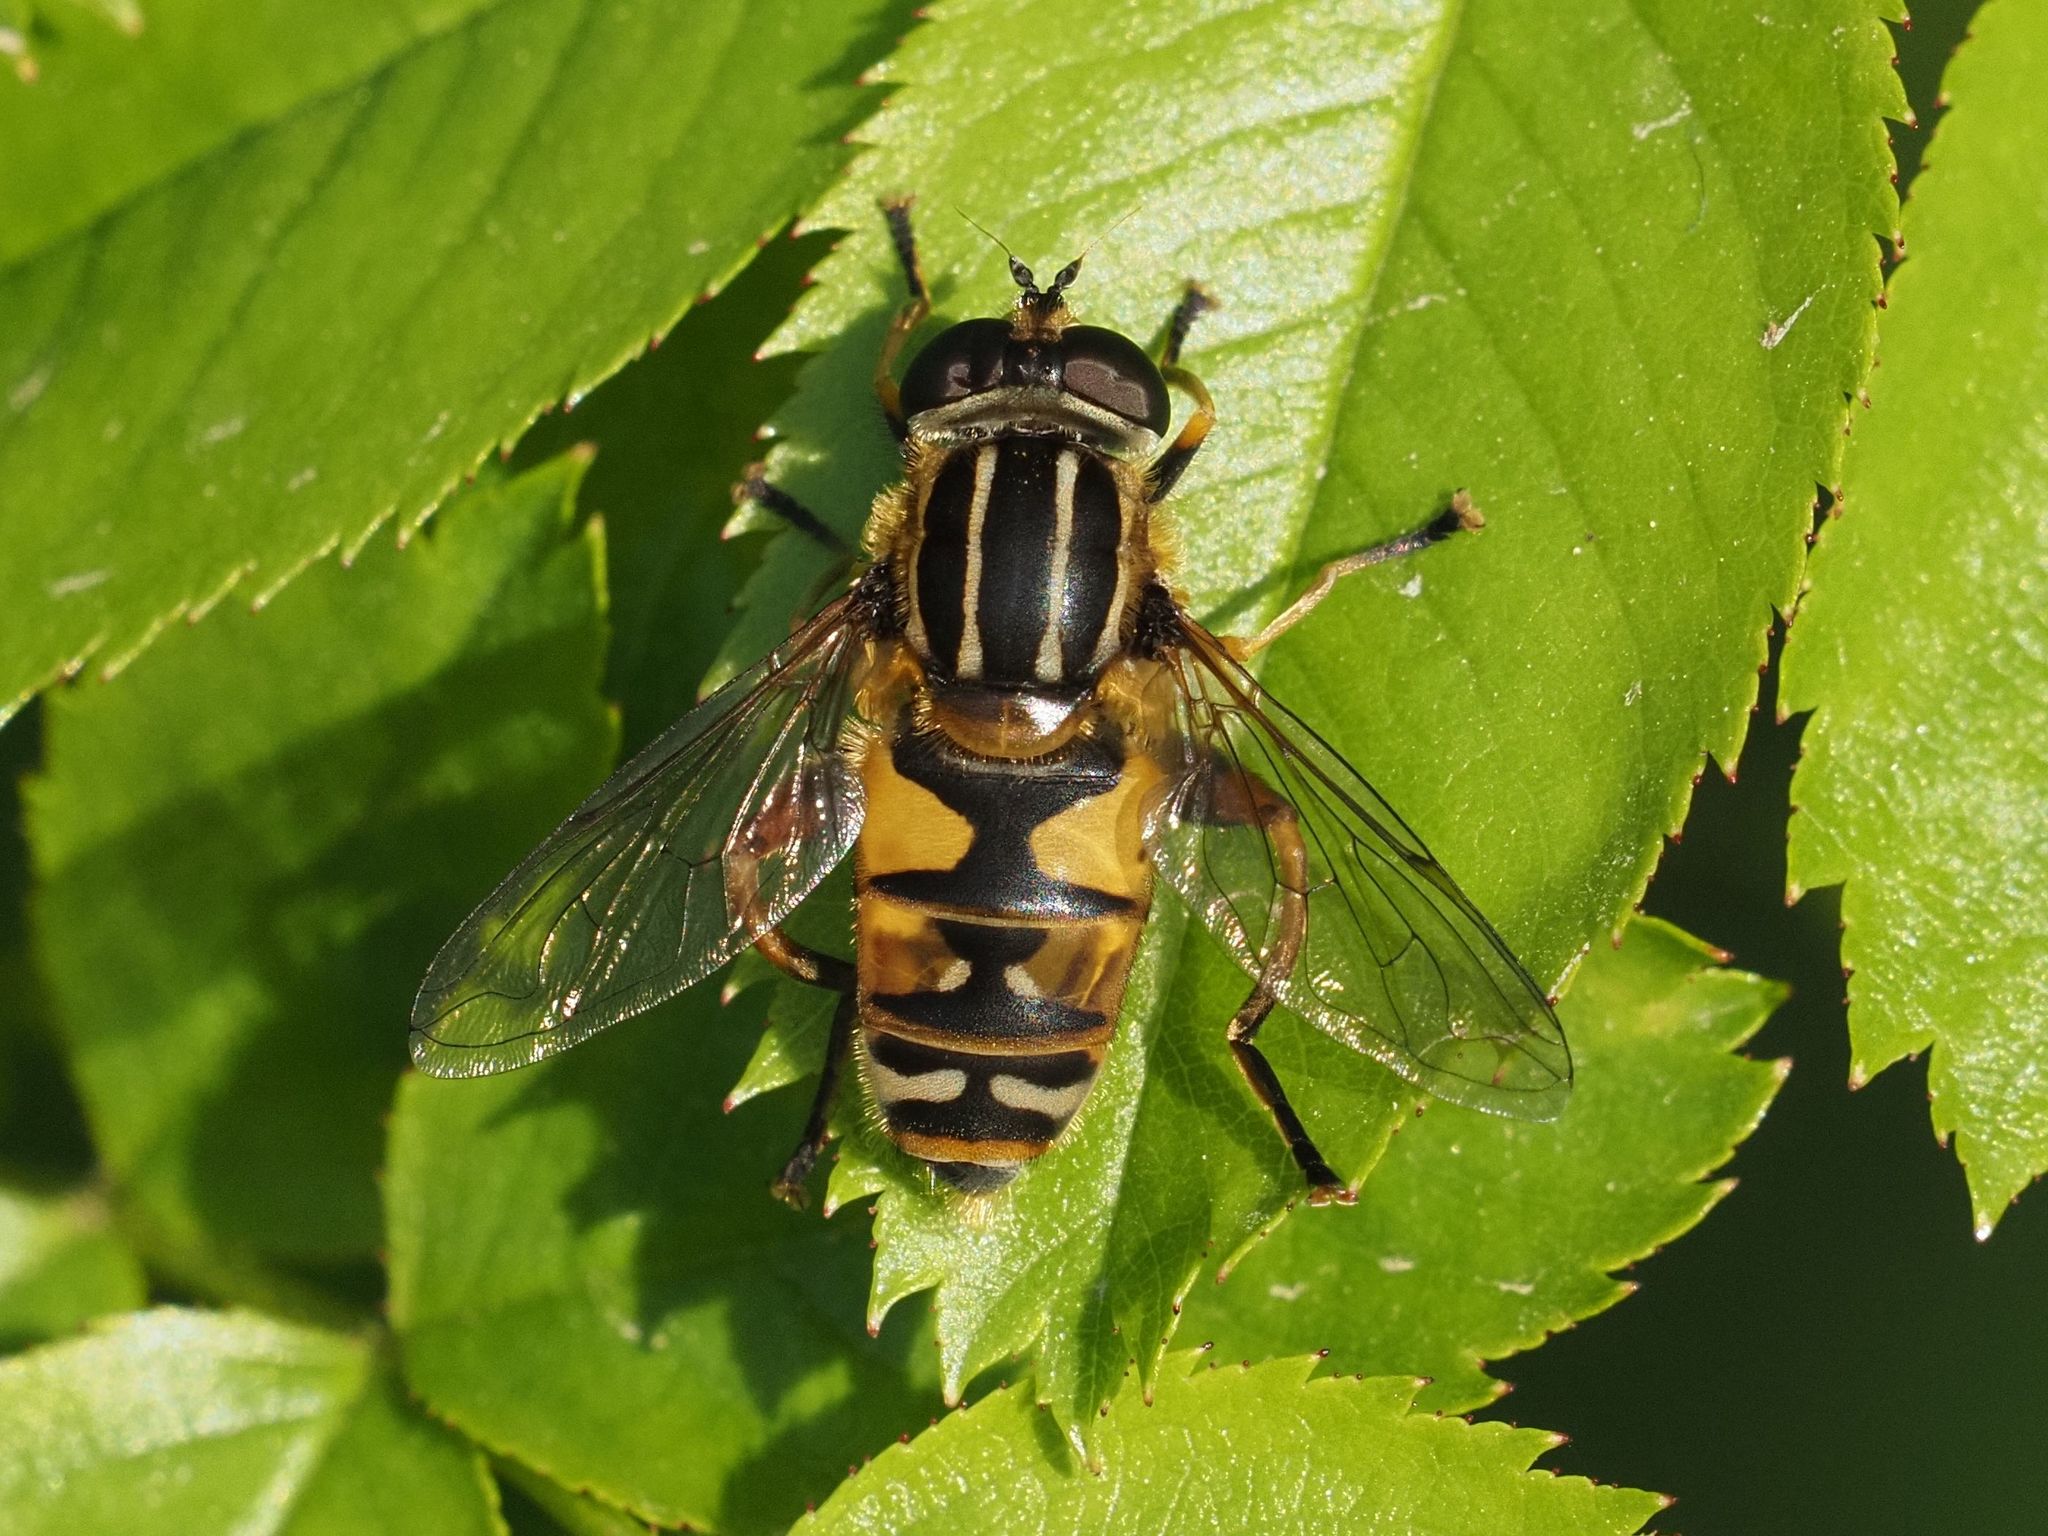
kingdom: Animalia
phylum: Arthropoda
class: Insecta
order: Diptera
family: Syrphidae
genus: Helophilus
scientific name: Helophilus pendulus
